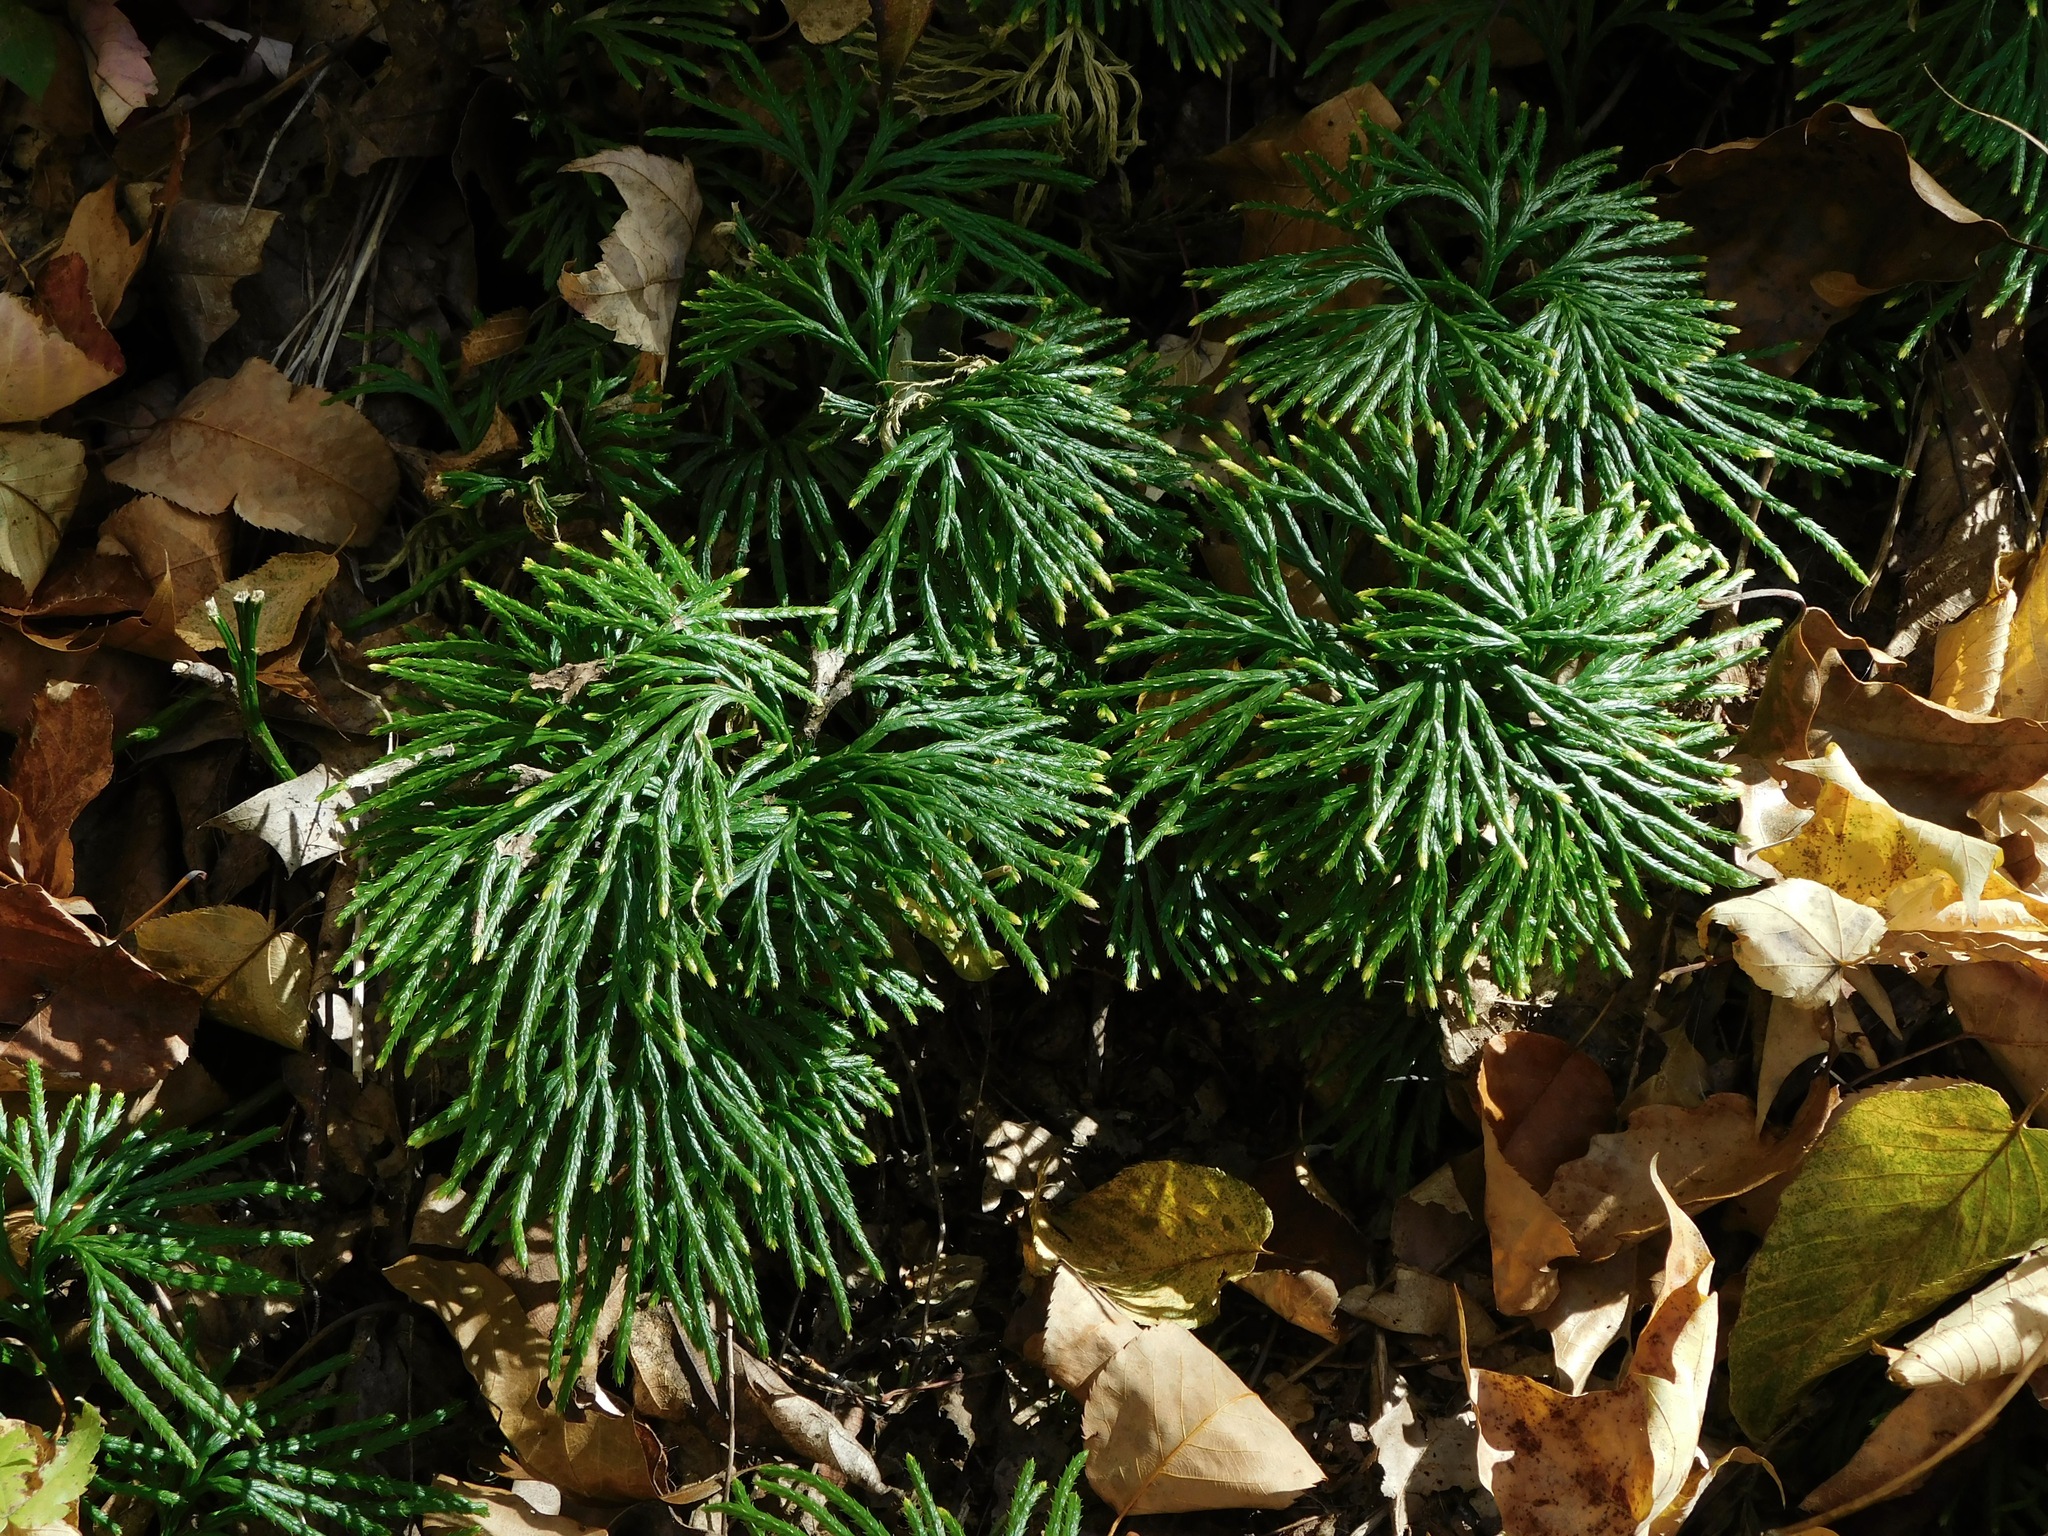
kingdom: Plantae
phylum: Tracheophyta
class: Lycopodiopsida
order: Lycopodiales
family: Lycopodiaceae
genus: Diphasiastrum
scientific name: Diphasiastrum digitatum
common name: Southern running-pine
